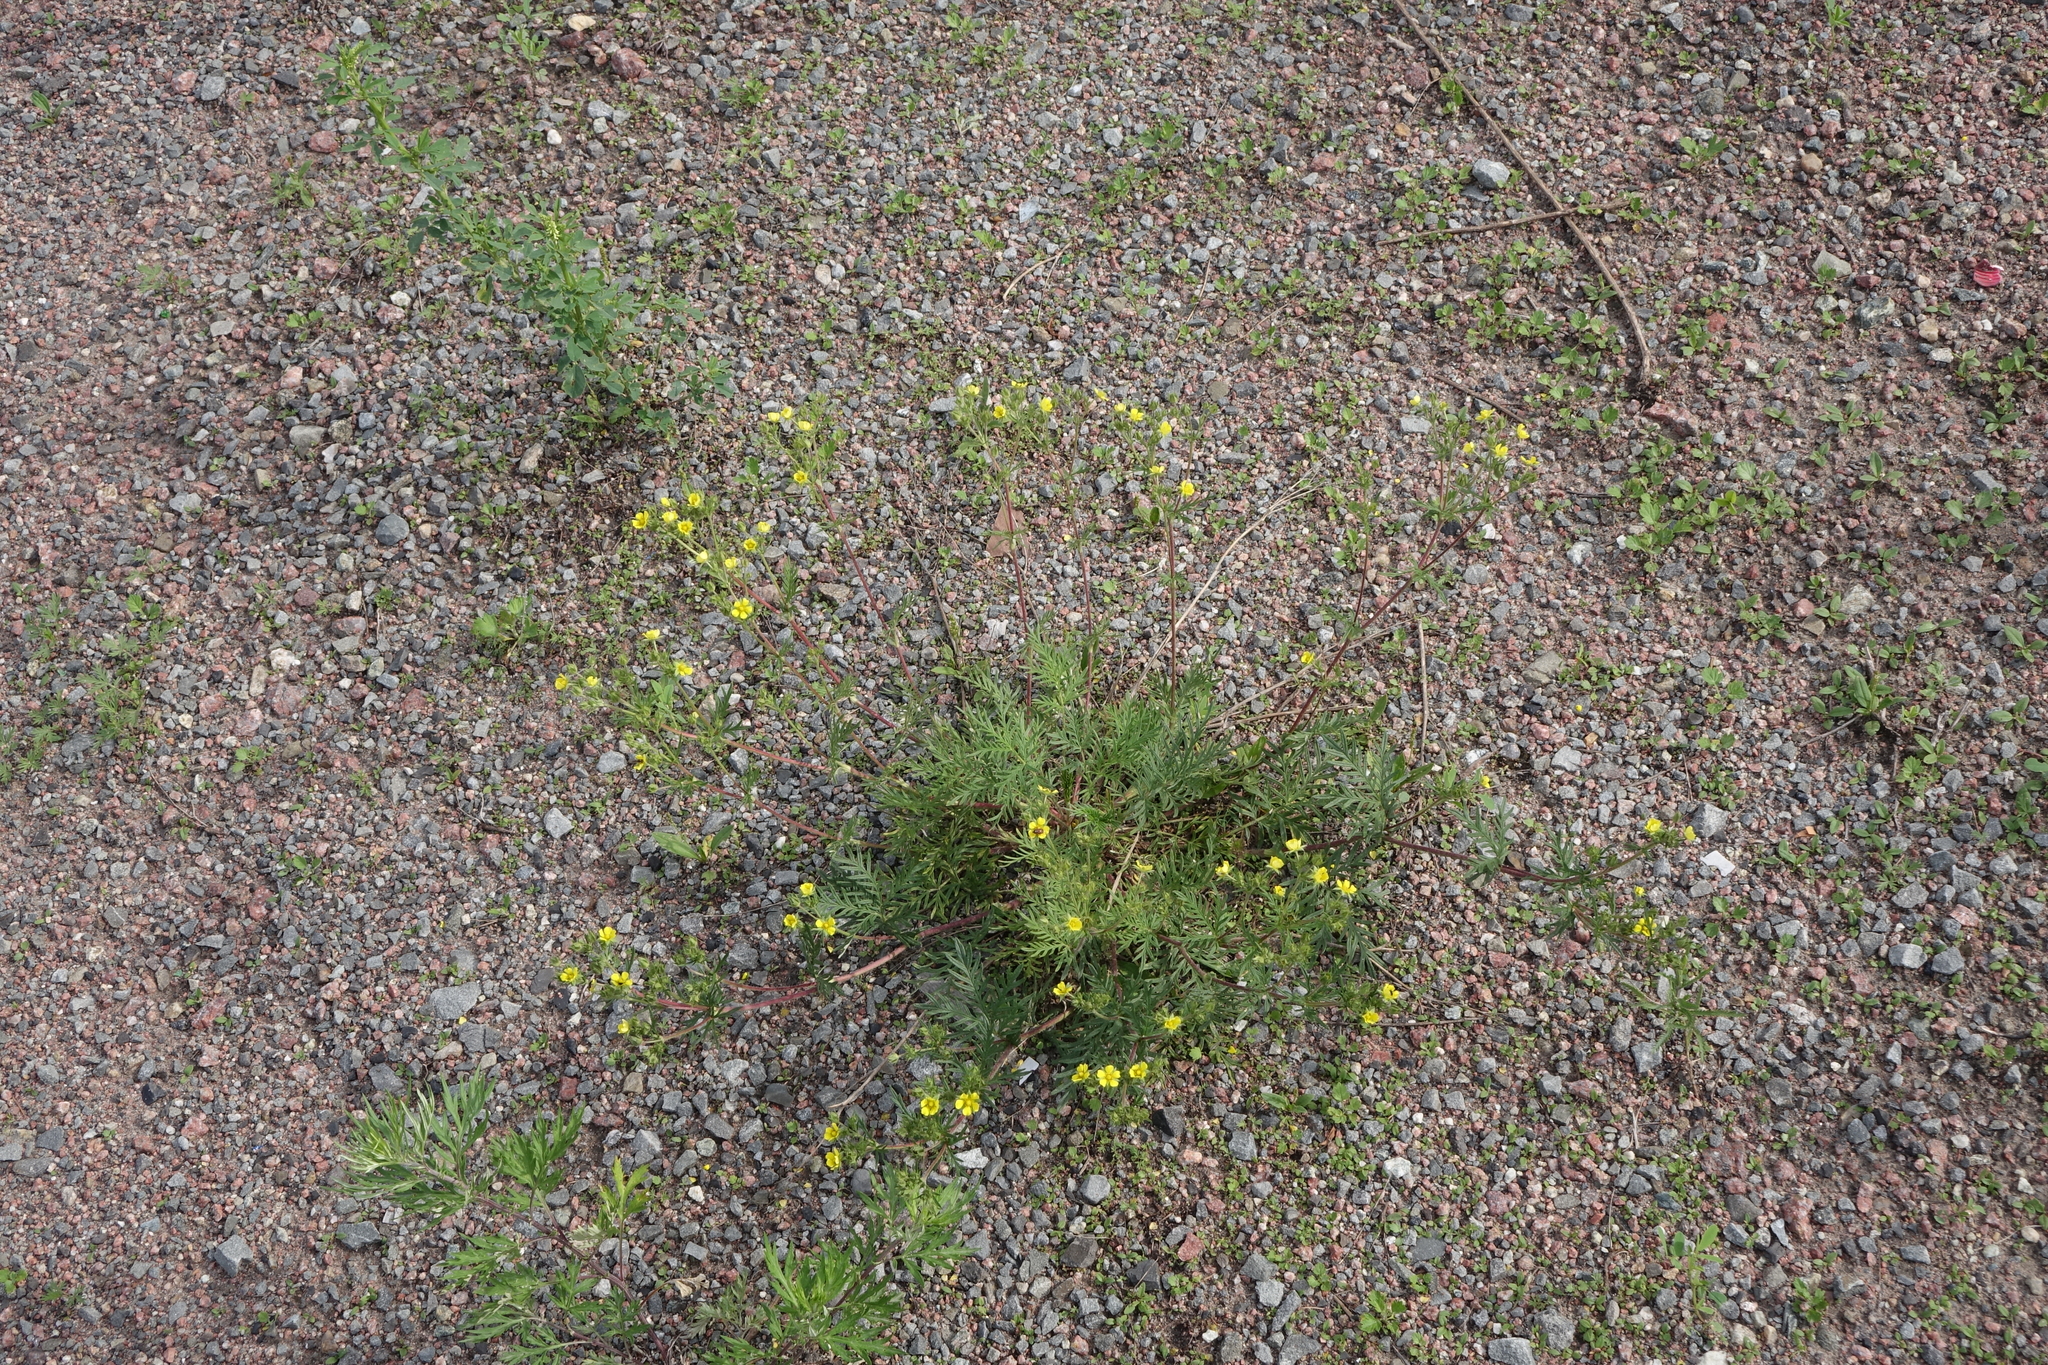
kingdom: Plantae
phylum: Tracheophyta
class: Magnoliopsida
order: Rosales
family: Rosaceae
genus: Potentilla
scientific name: Potentilla tergemina
